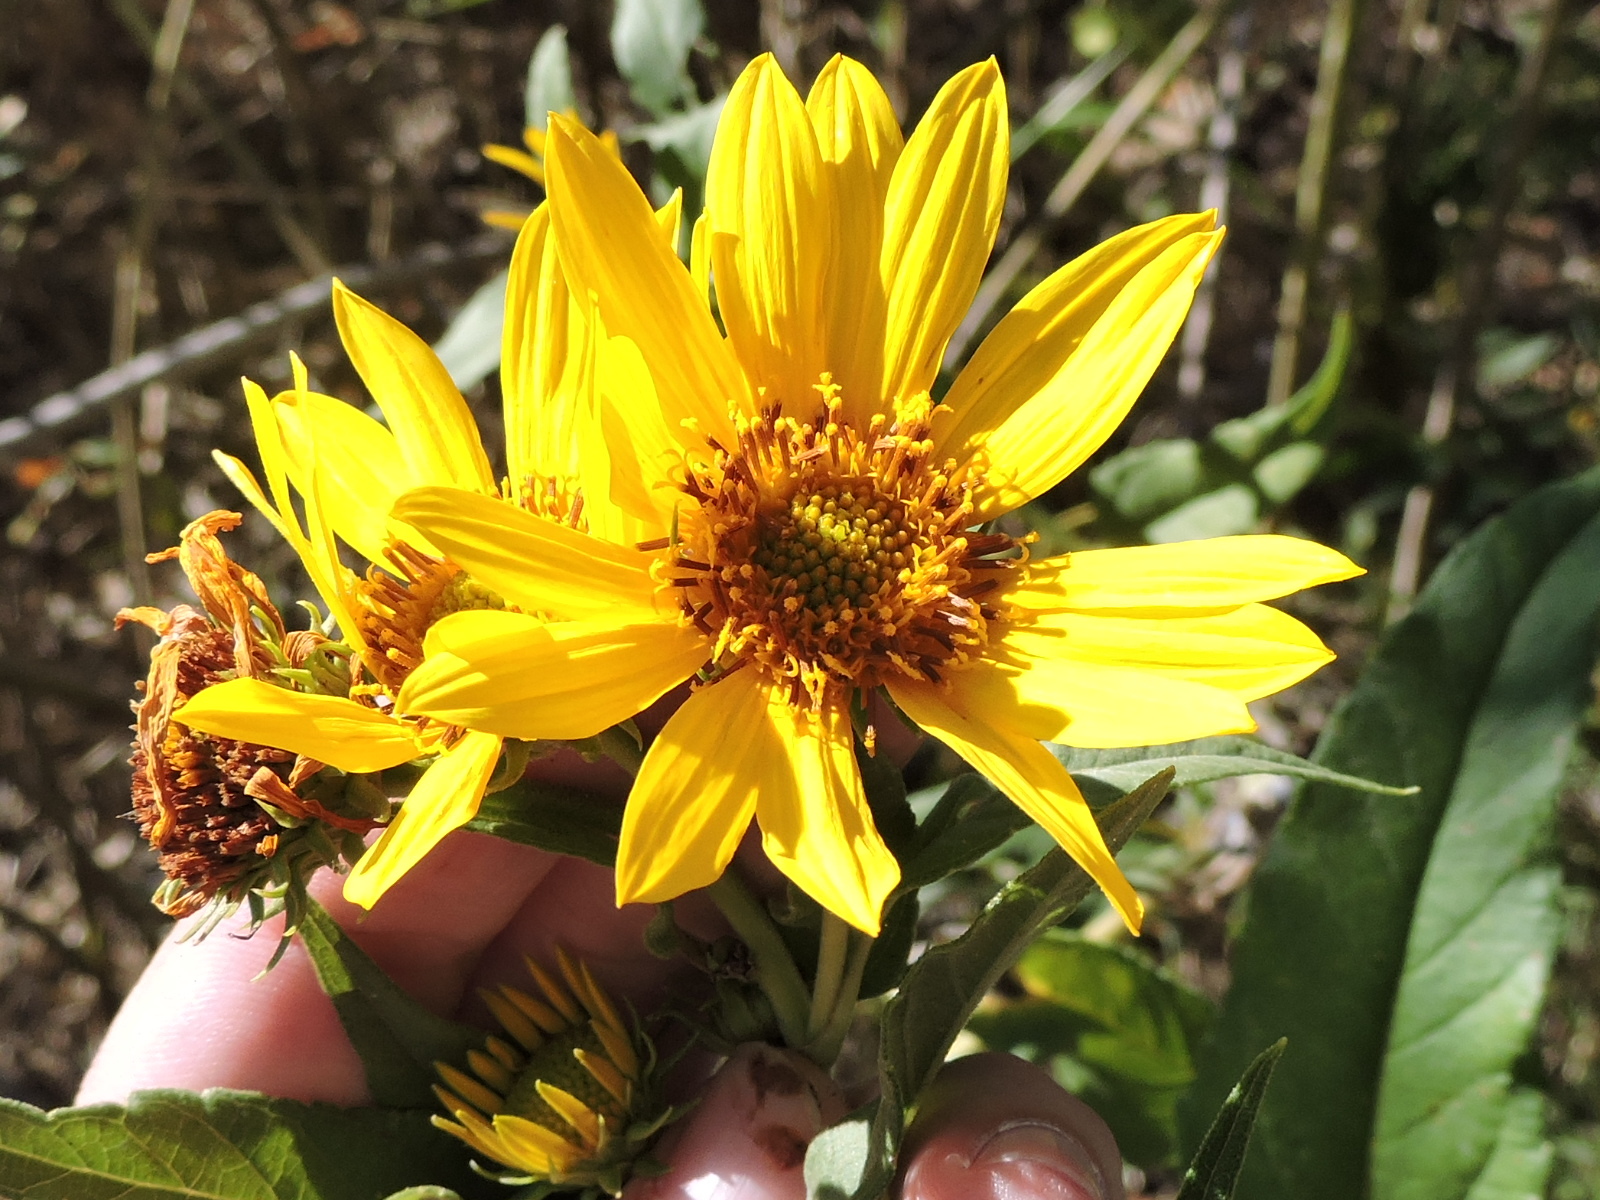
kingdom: Plantae
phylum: Tracheophyta
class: Magnoliopsida
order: Asterales
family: Asteraceae
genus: Helianthus
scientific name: Helianthus maximiliani
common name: Maximilian's sunflower
